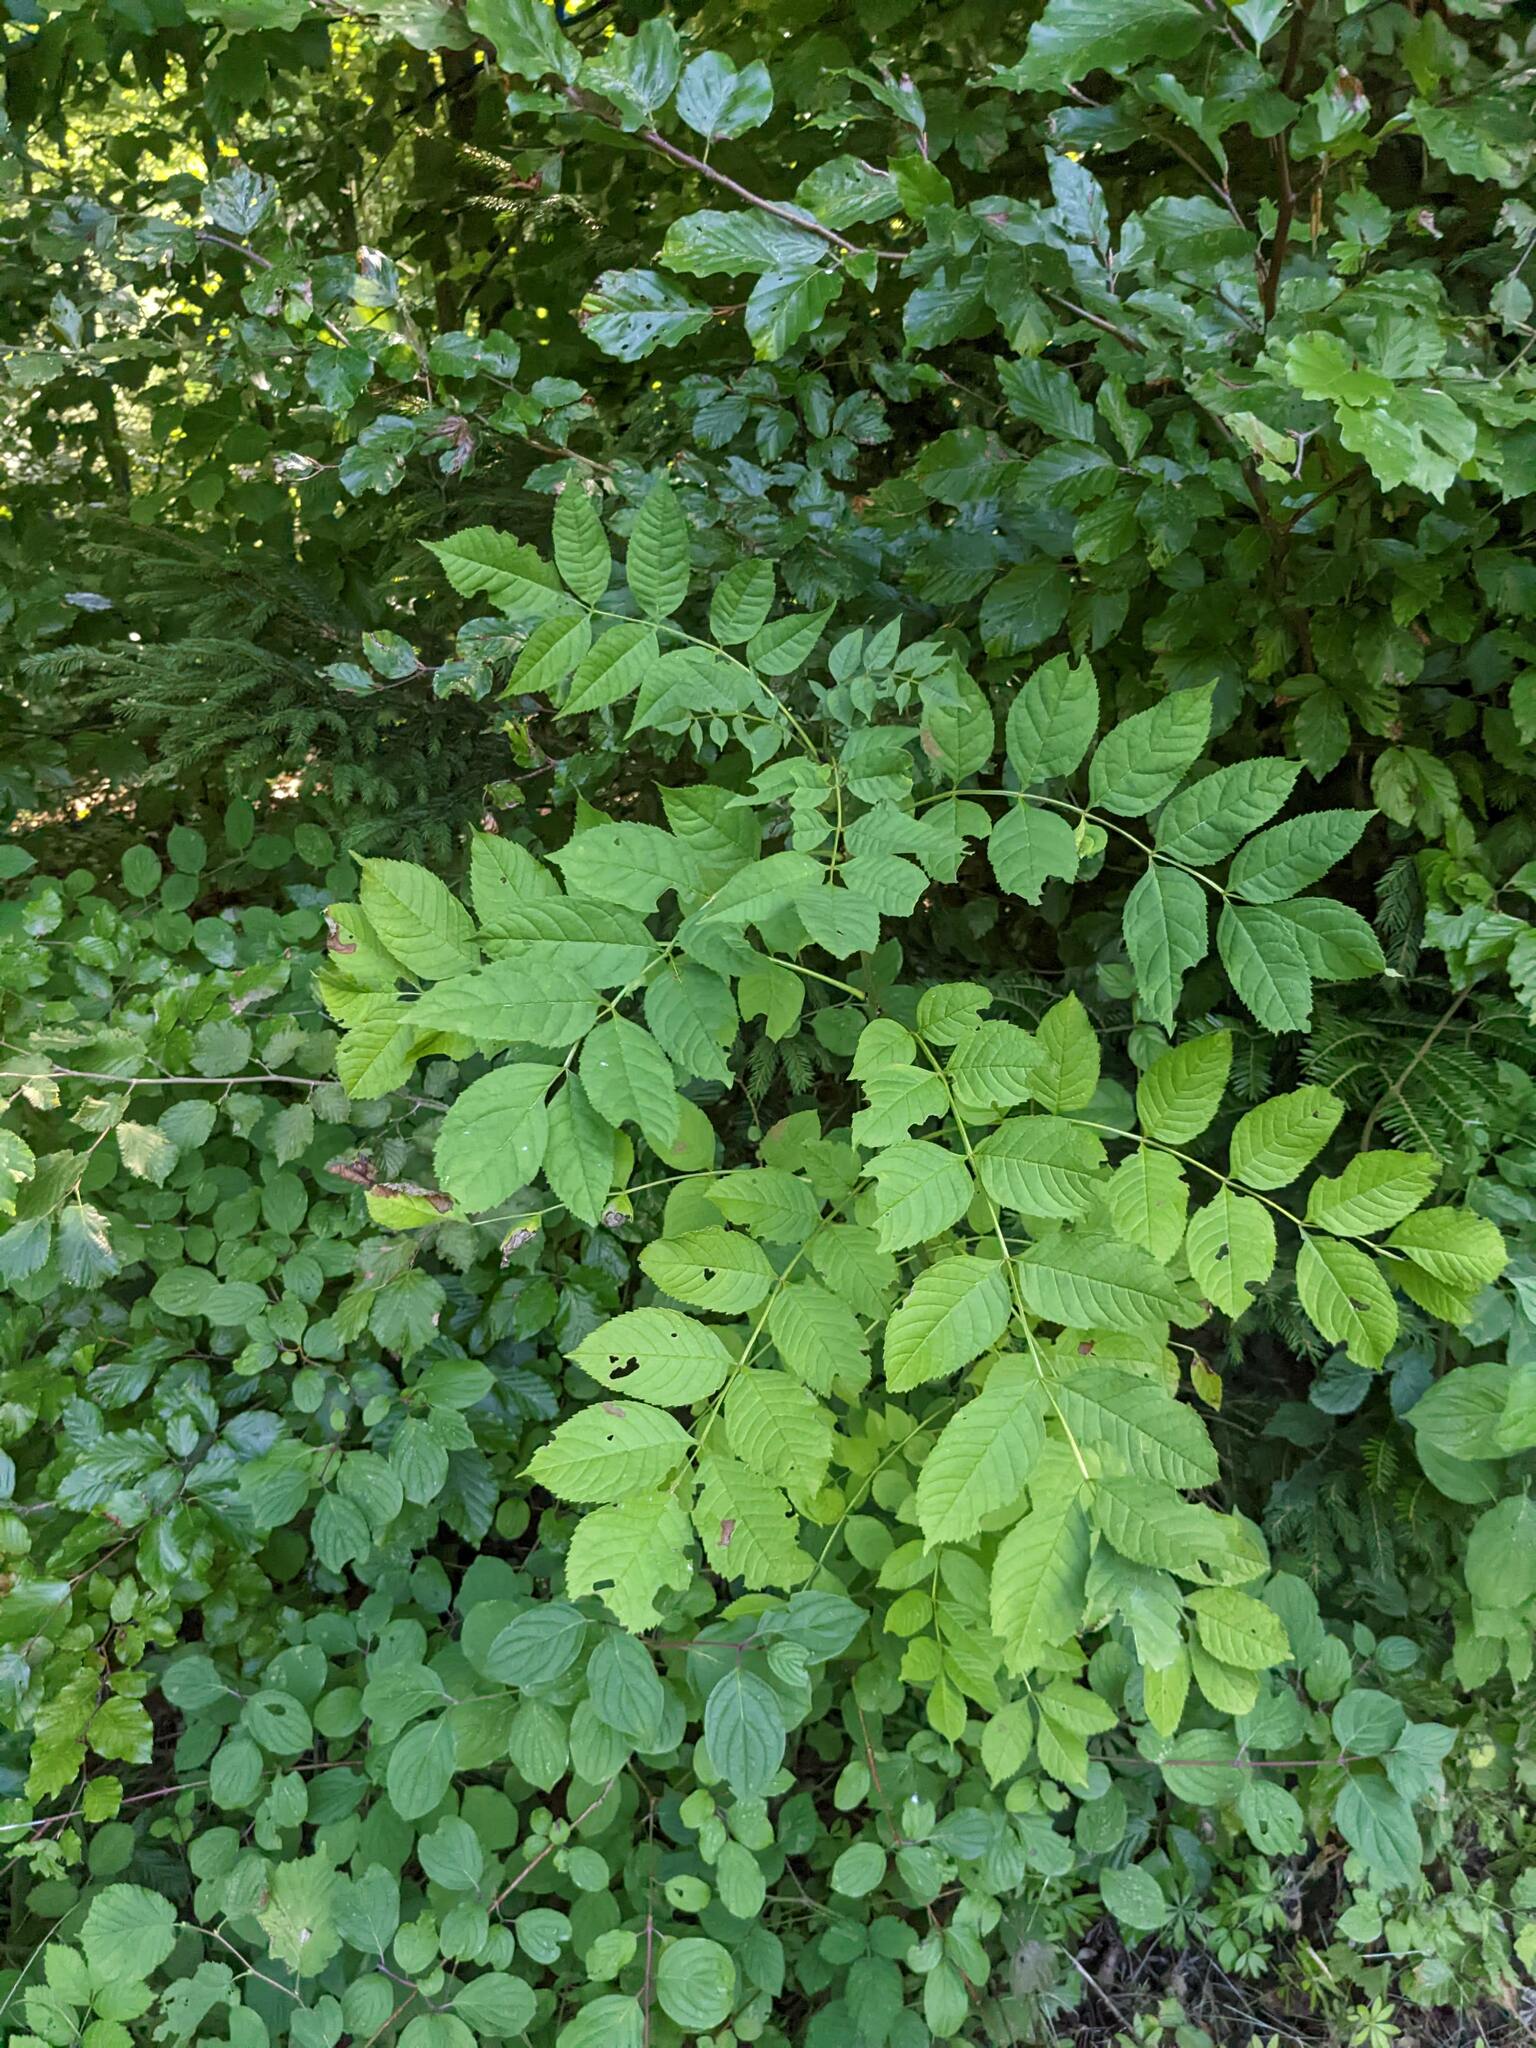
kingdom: Plantae
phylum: Tracheophyta
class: Magnoliopsida
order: Lamiales
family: Oleaceae
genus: Fraxinus
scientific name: Fraxinus excelsior
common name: European ash
